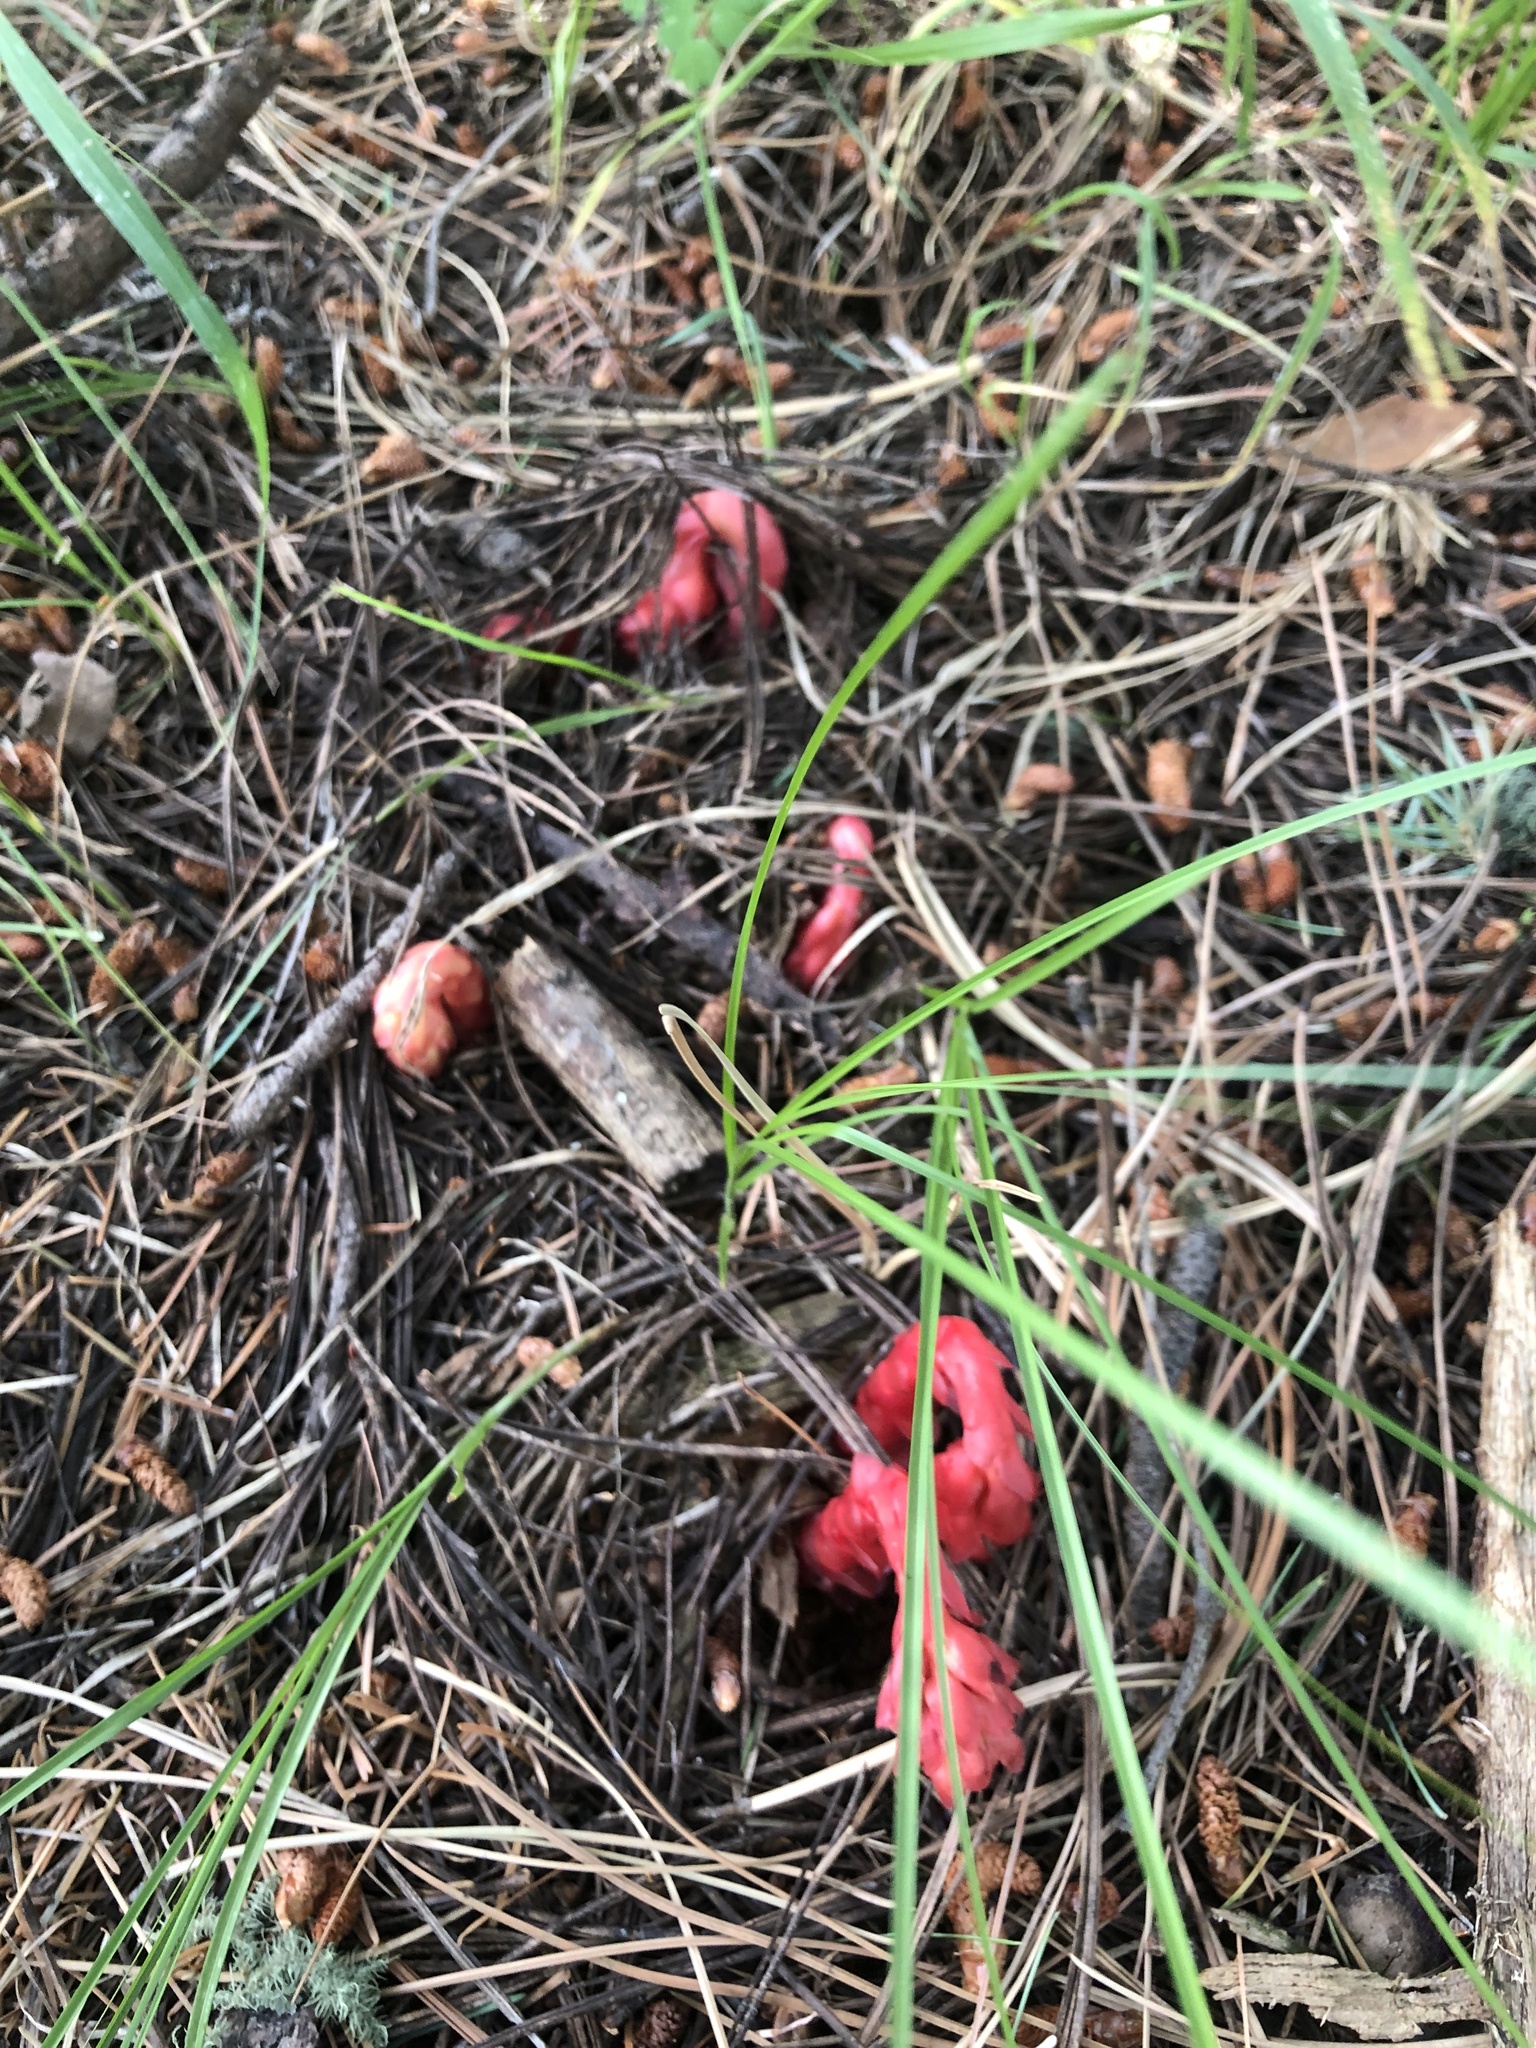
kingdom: Plantae
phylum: Tracheophyta
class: Magnoliopsida
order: Ericales
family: Ericaceae
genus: Hypopitys
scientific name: Hypopitys monotropa
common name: Yellow bird's-nest
